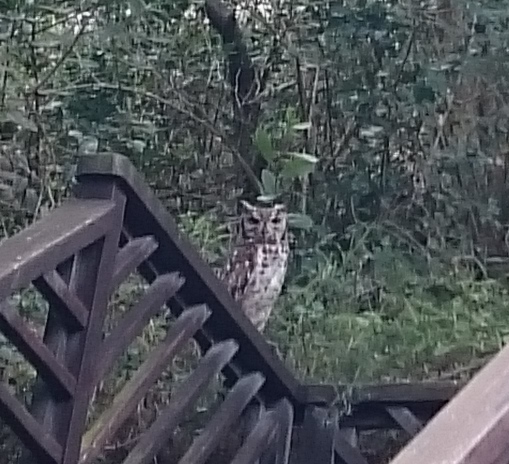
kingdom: Animalia
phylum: Chordata
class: Aves
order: Strigiformes
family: Strigidae
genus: Bubo
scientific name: Bubo africanus
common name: Spotted eagle-owl
